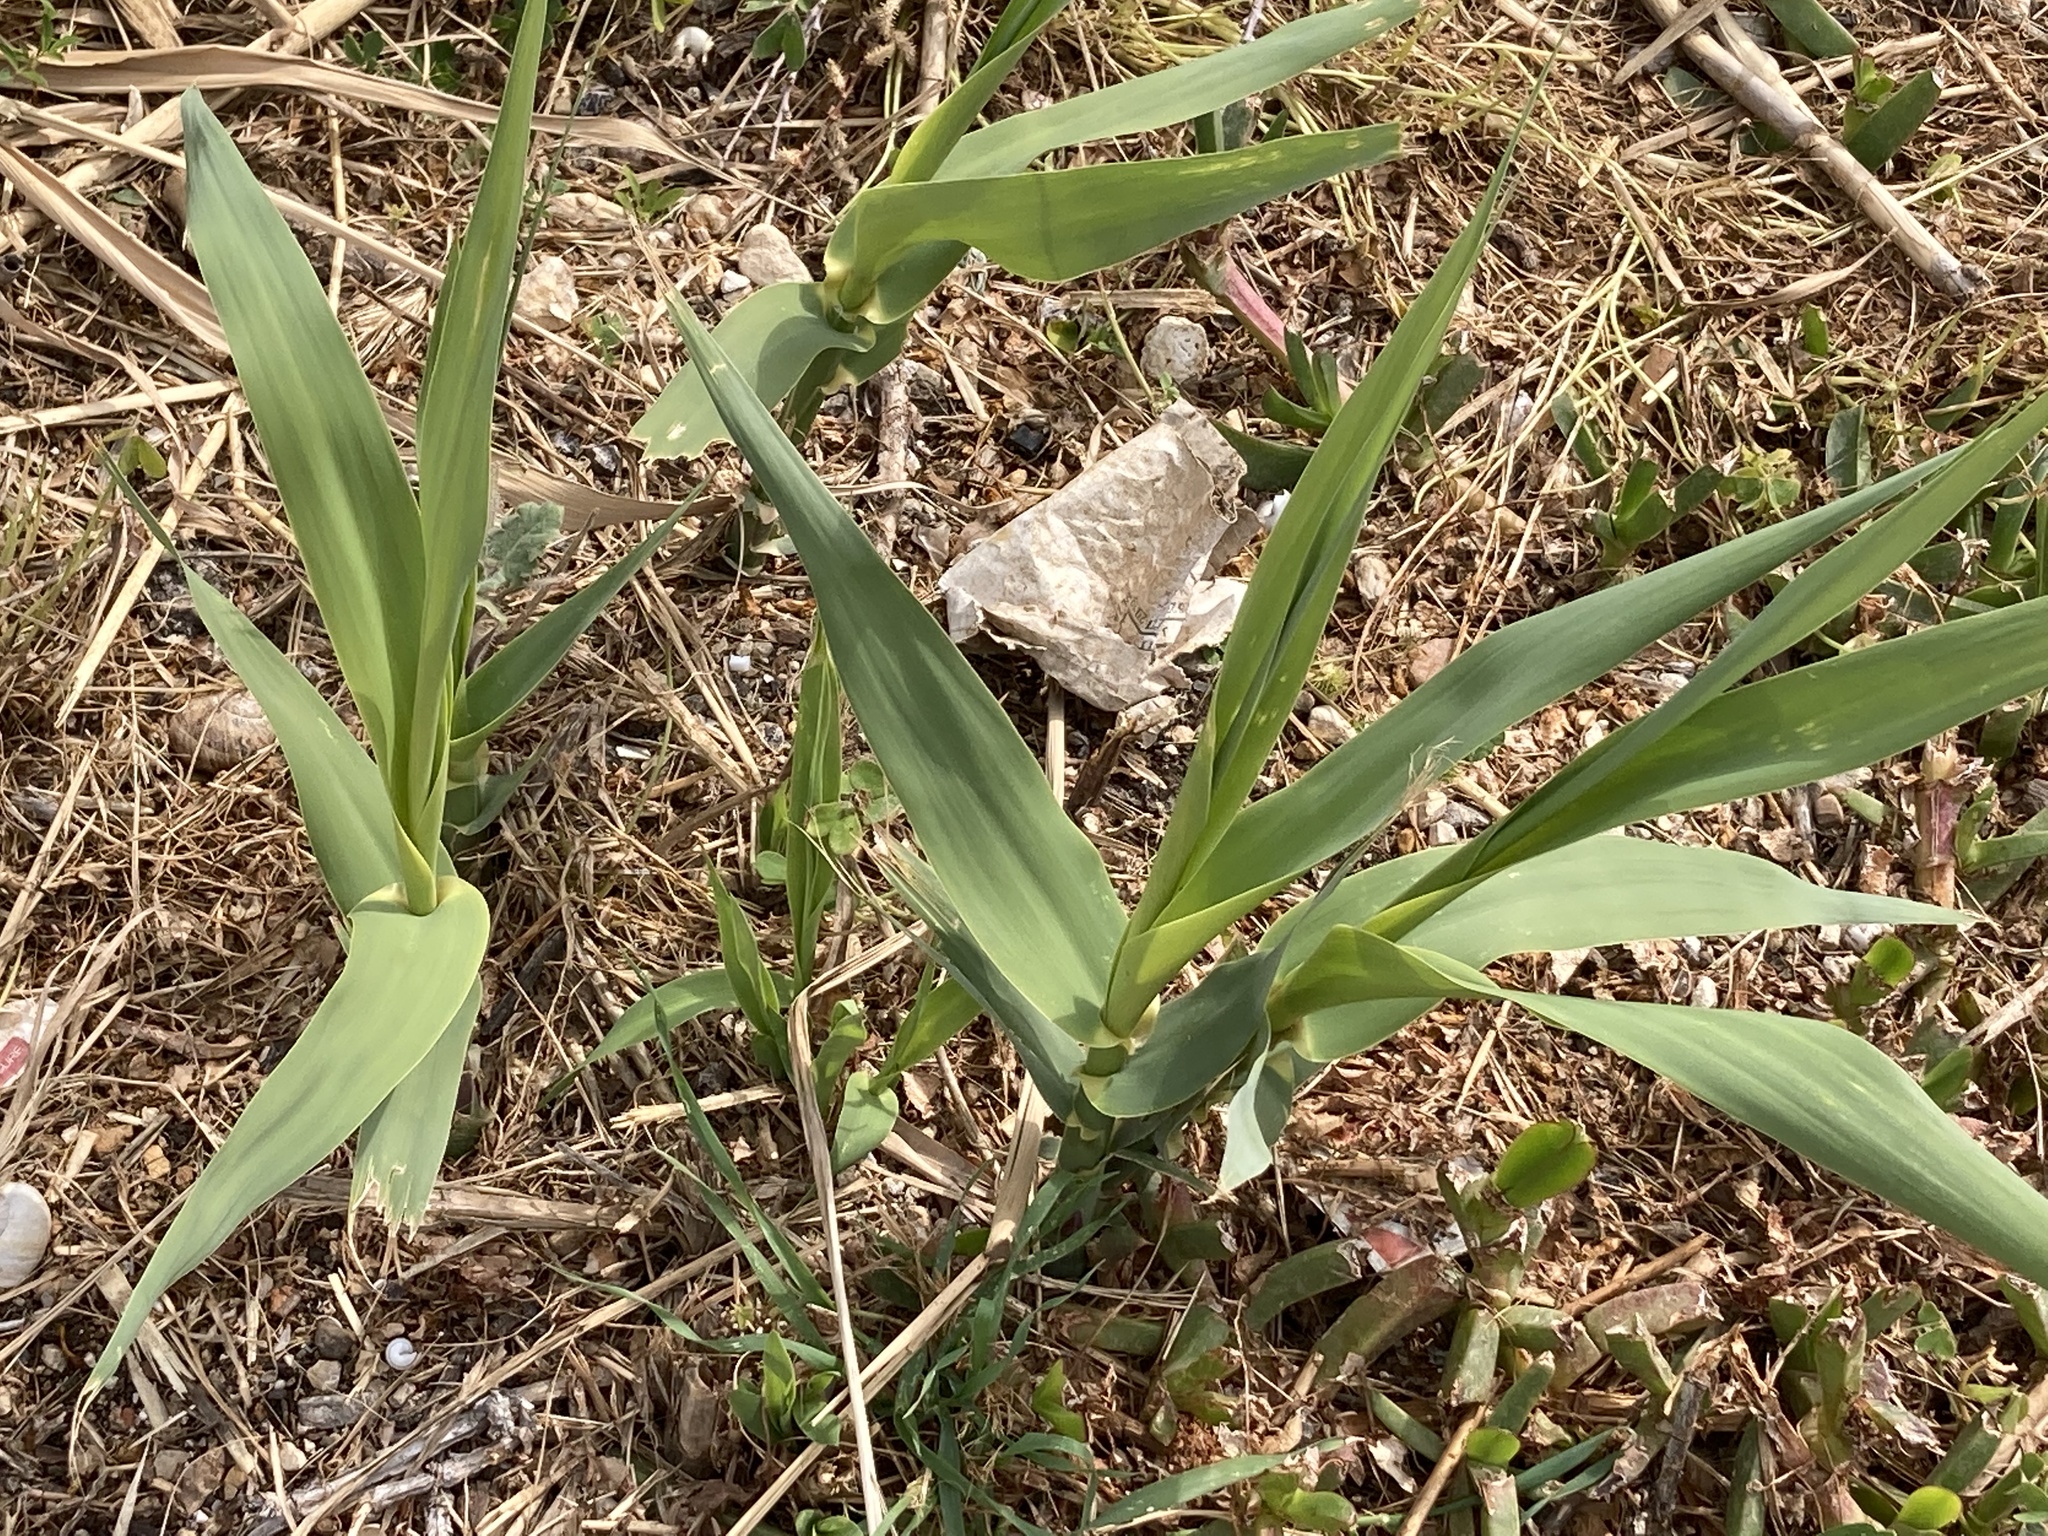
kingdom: Plantae
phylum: Tracheophyta
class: Liliopsida
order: Poales
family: Poaceae
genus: Arundo
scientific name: Arundo donax
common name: Giant reed
